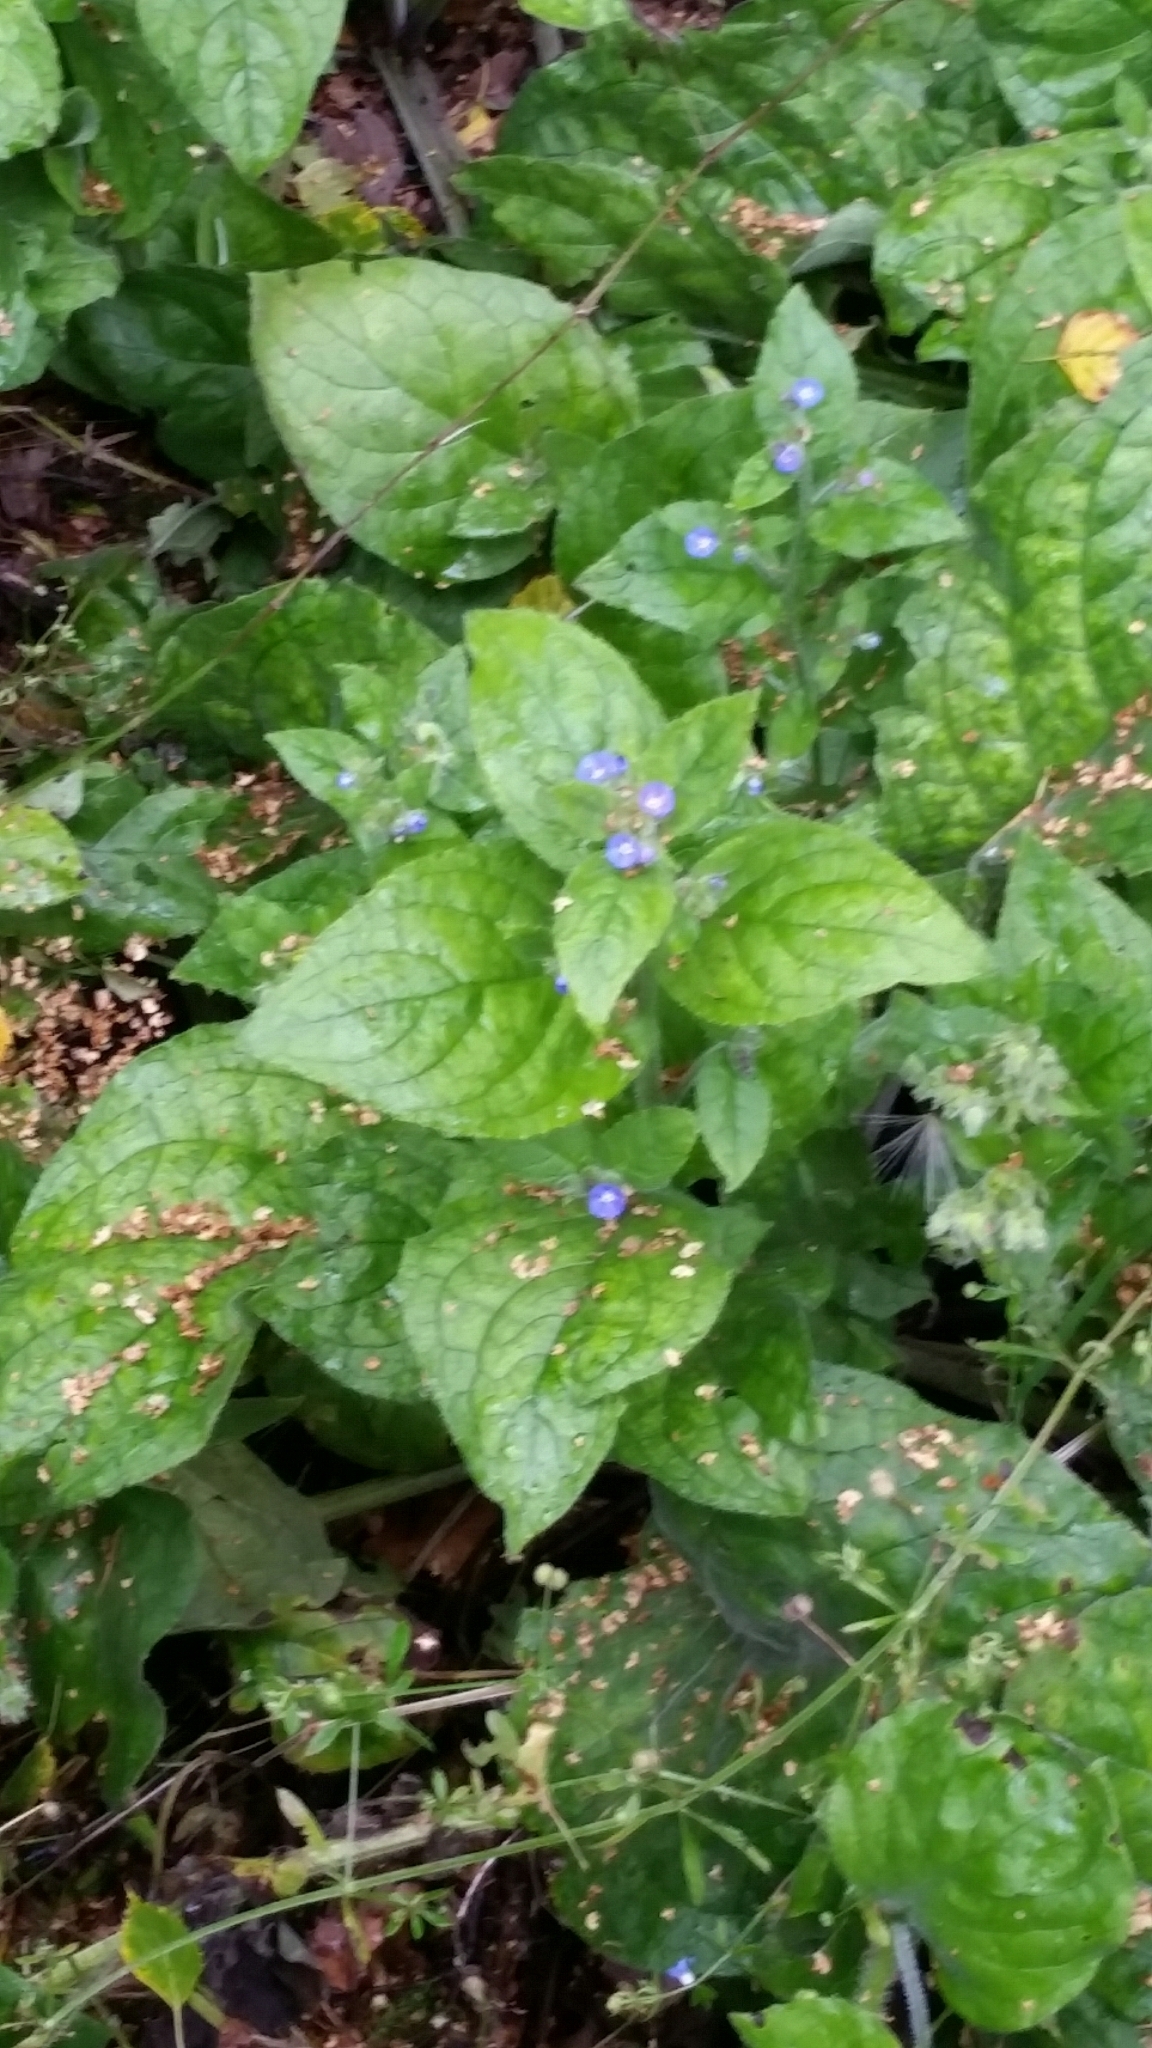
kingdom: Plantae
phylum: Tracheophyta
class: Magnoliopsida
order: Boraginales
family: Boraginaceae
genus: Pentaglottis
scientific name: Pentaglottis sempervirens
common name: Green alkanet
